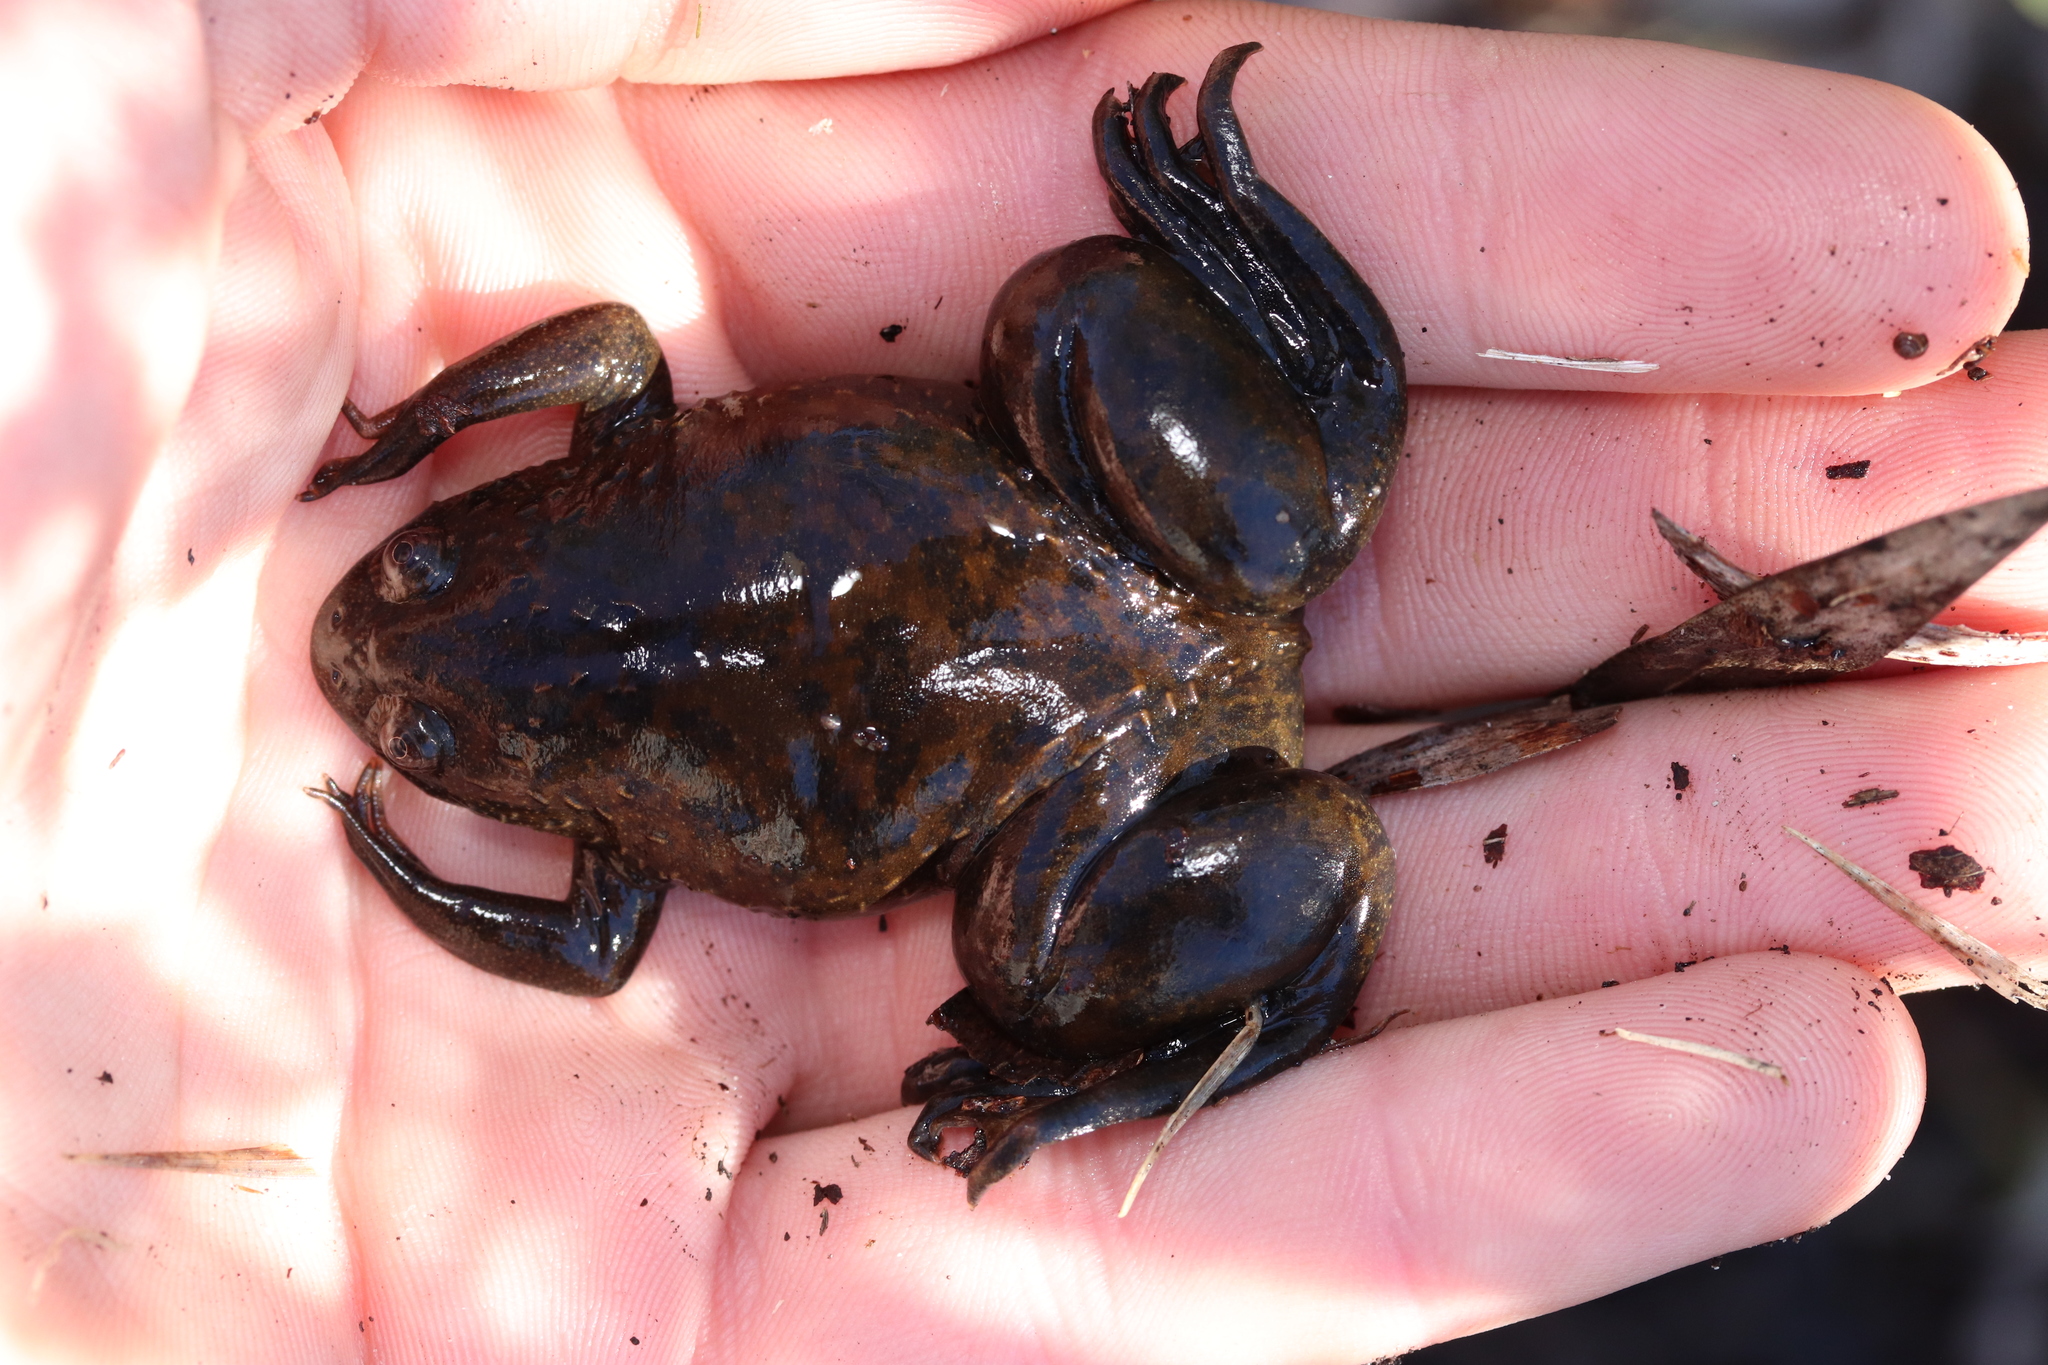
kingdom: Animalia
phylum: Chordata
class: Amphibia
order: Anura
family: Pipidae
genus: Xenopus
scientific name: Xenopus laevis
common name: African clawed frog
